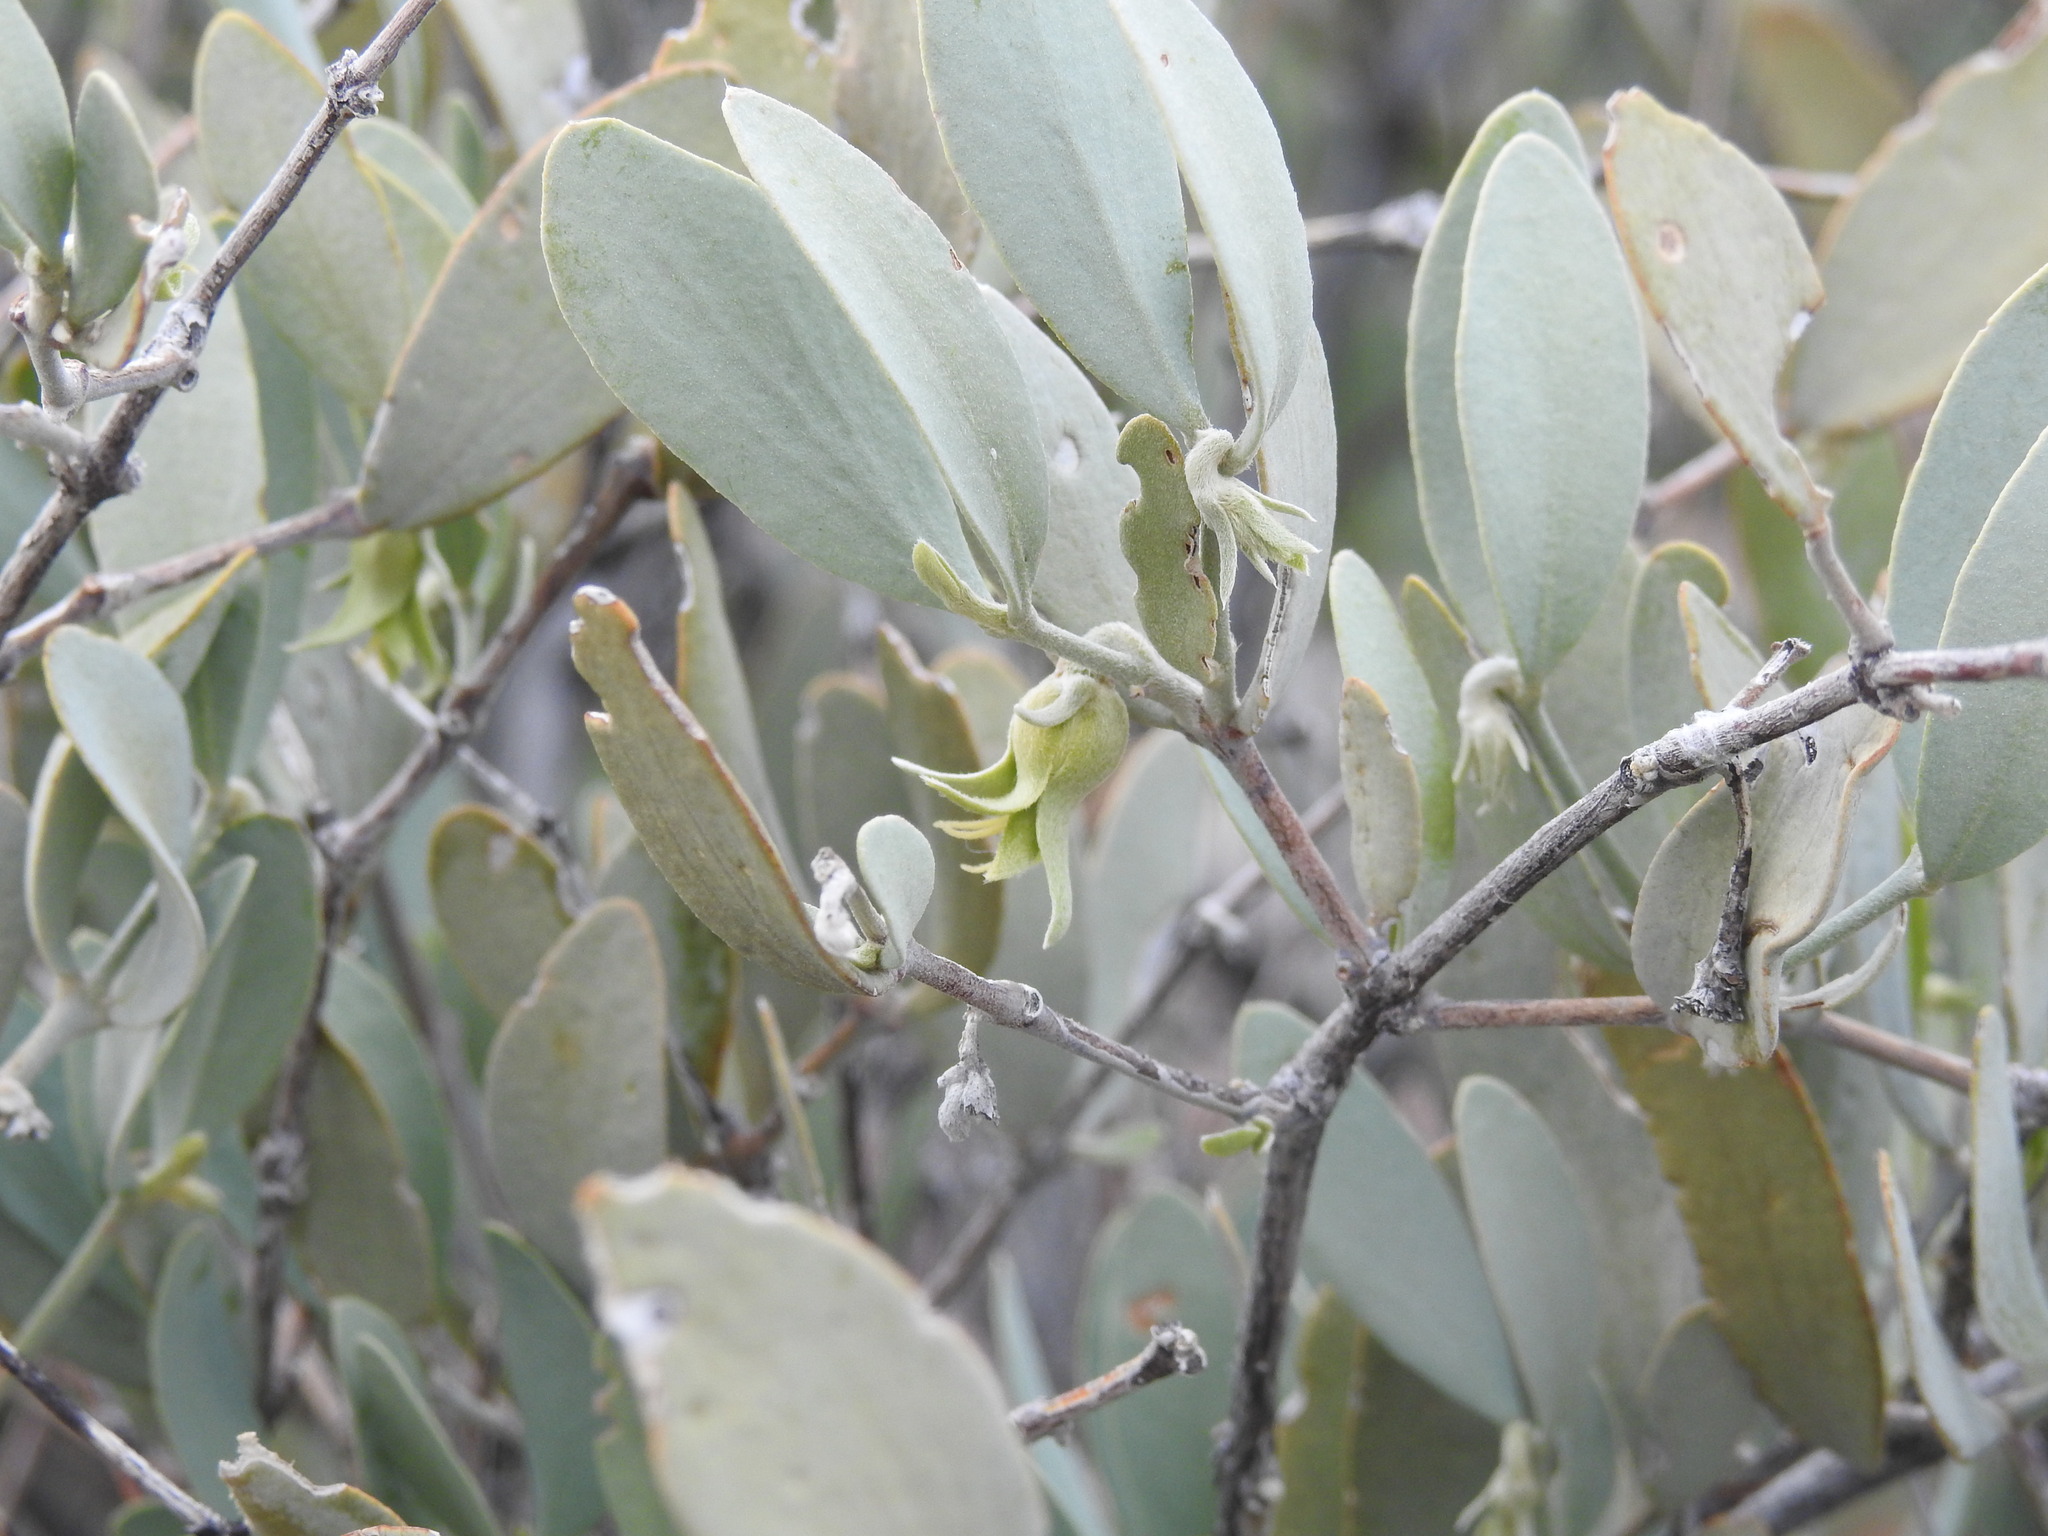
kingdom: Plantae
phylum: Tracheophyta
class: Magnoliopsida
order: Caryophyllales
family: Simmondsiaceae
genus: Simmondsia
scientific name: Simmondsia chinensis
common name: Jojoba
